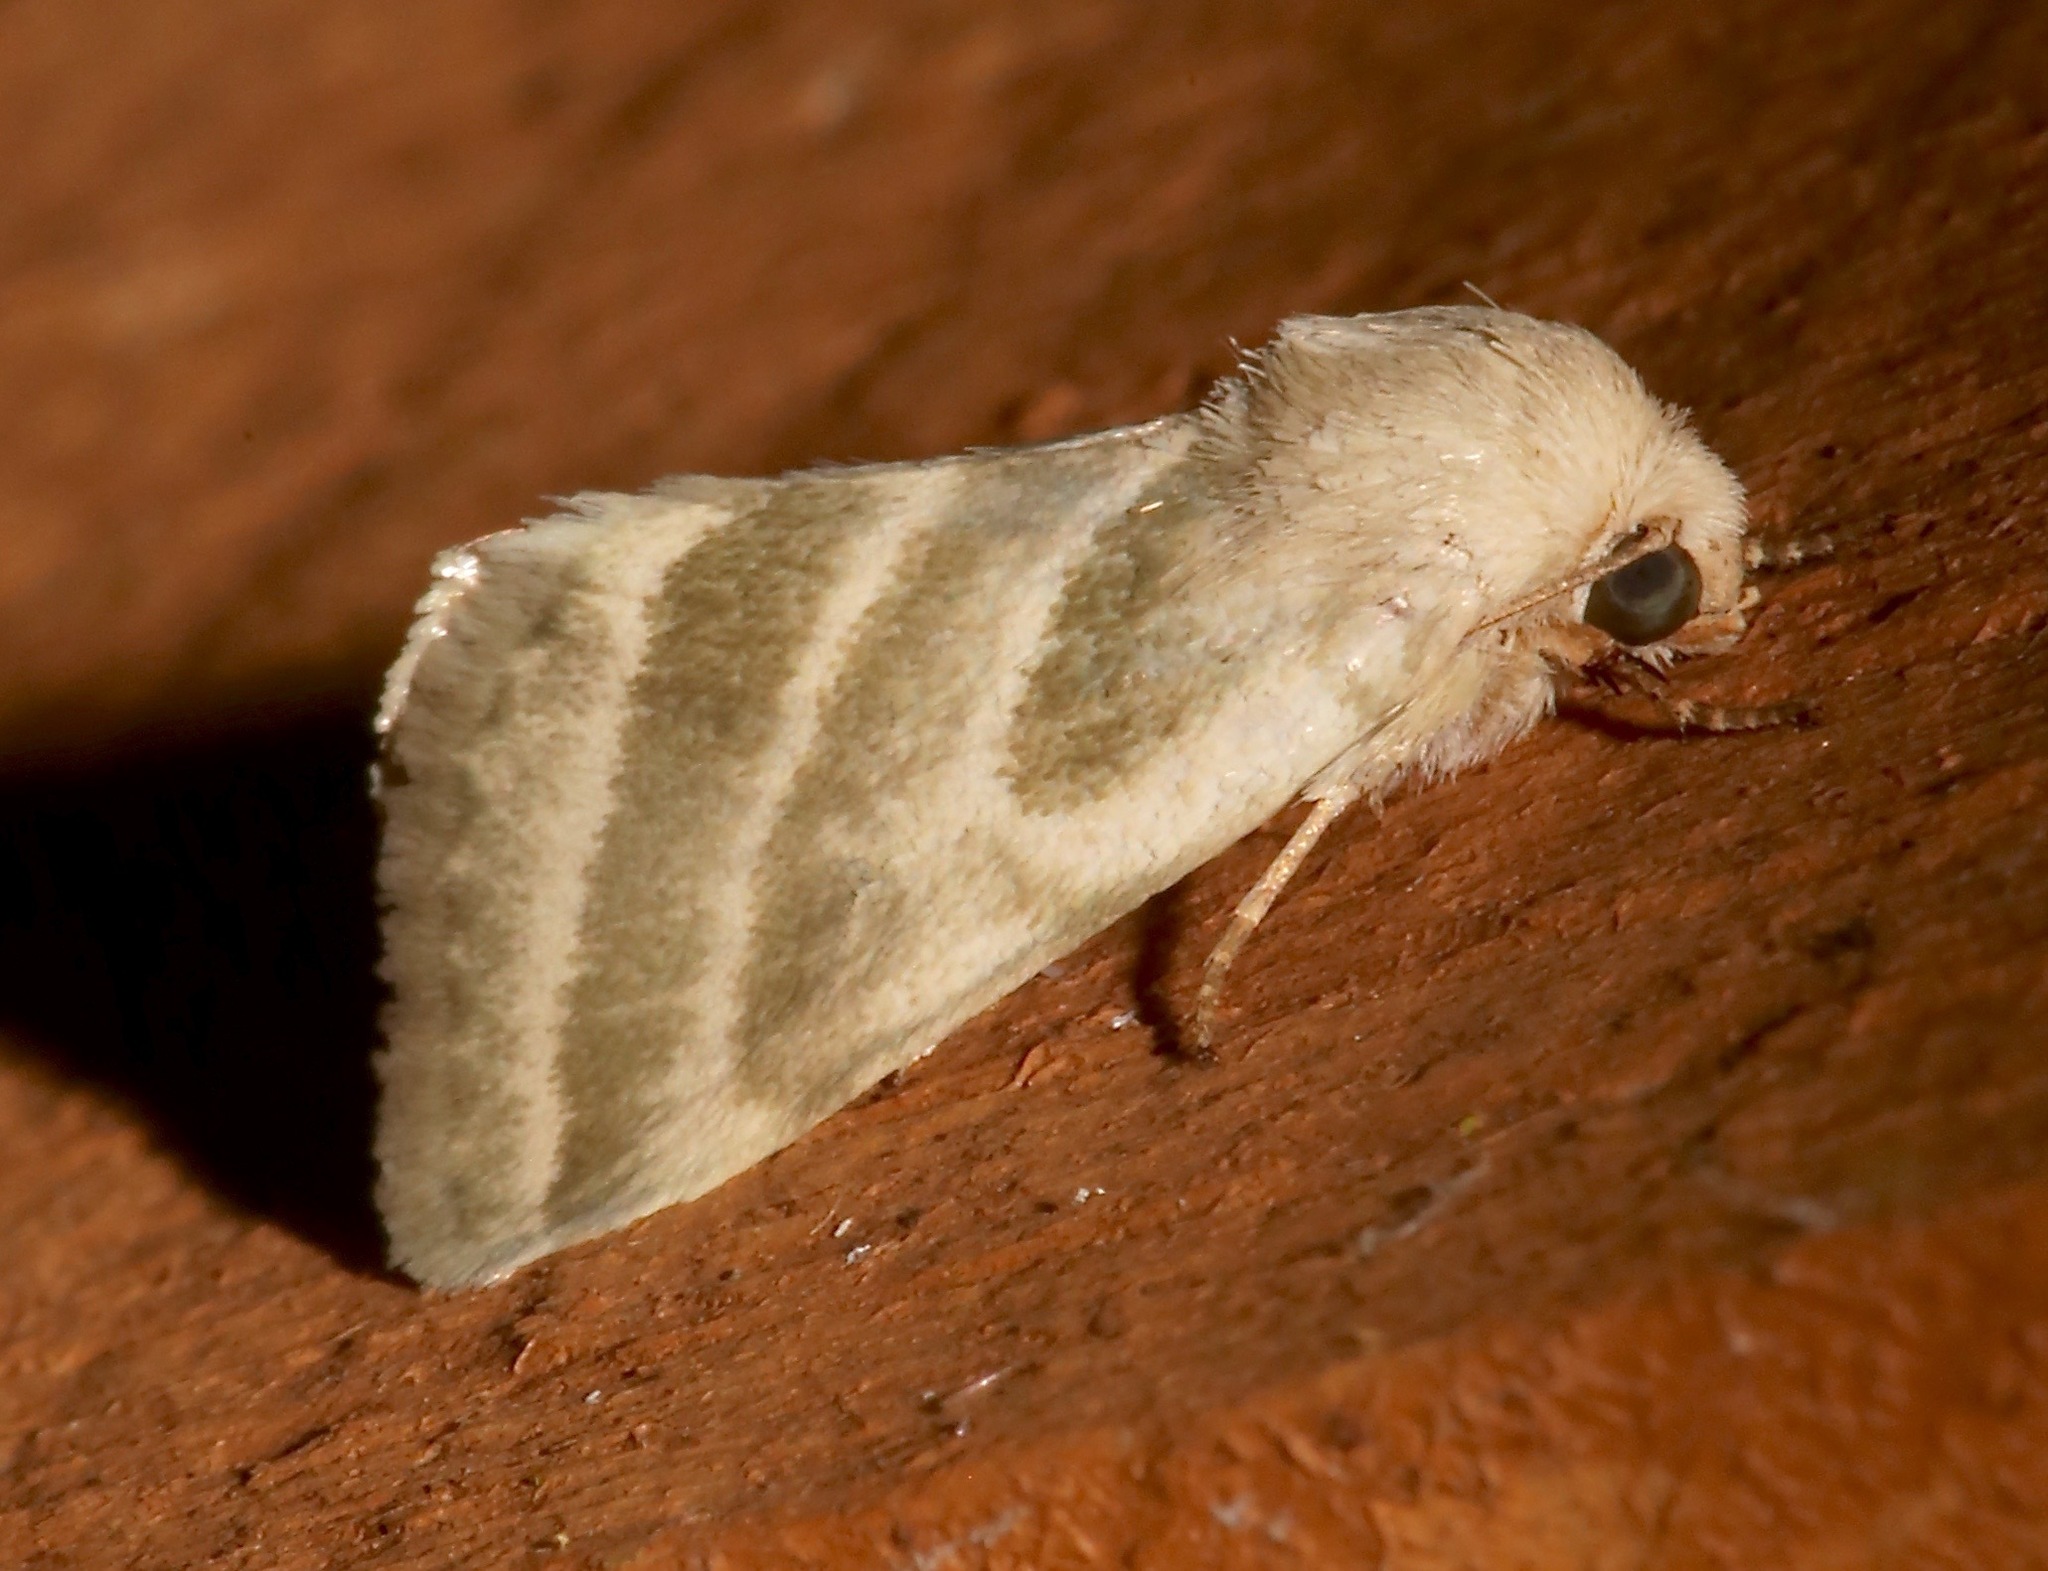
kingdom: Animalia
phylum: Arthropoda
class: Insecta
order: Lepidoptera
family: Noctuidae
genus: Schinia
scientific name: Schinia trifascia
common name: Three-lined flower moth
